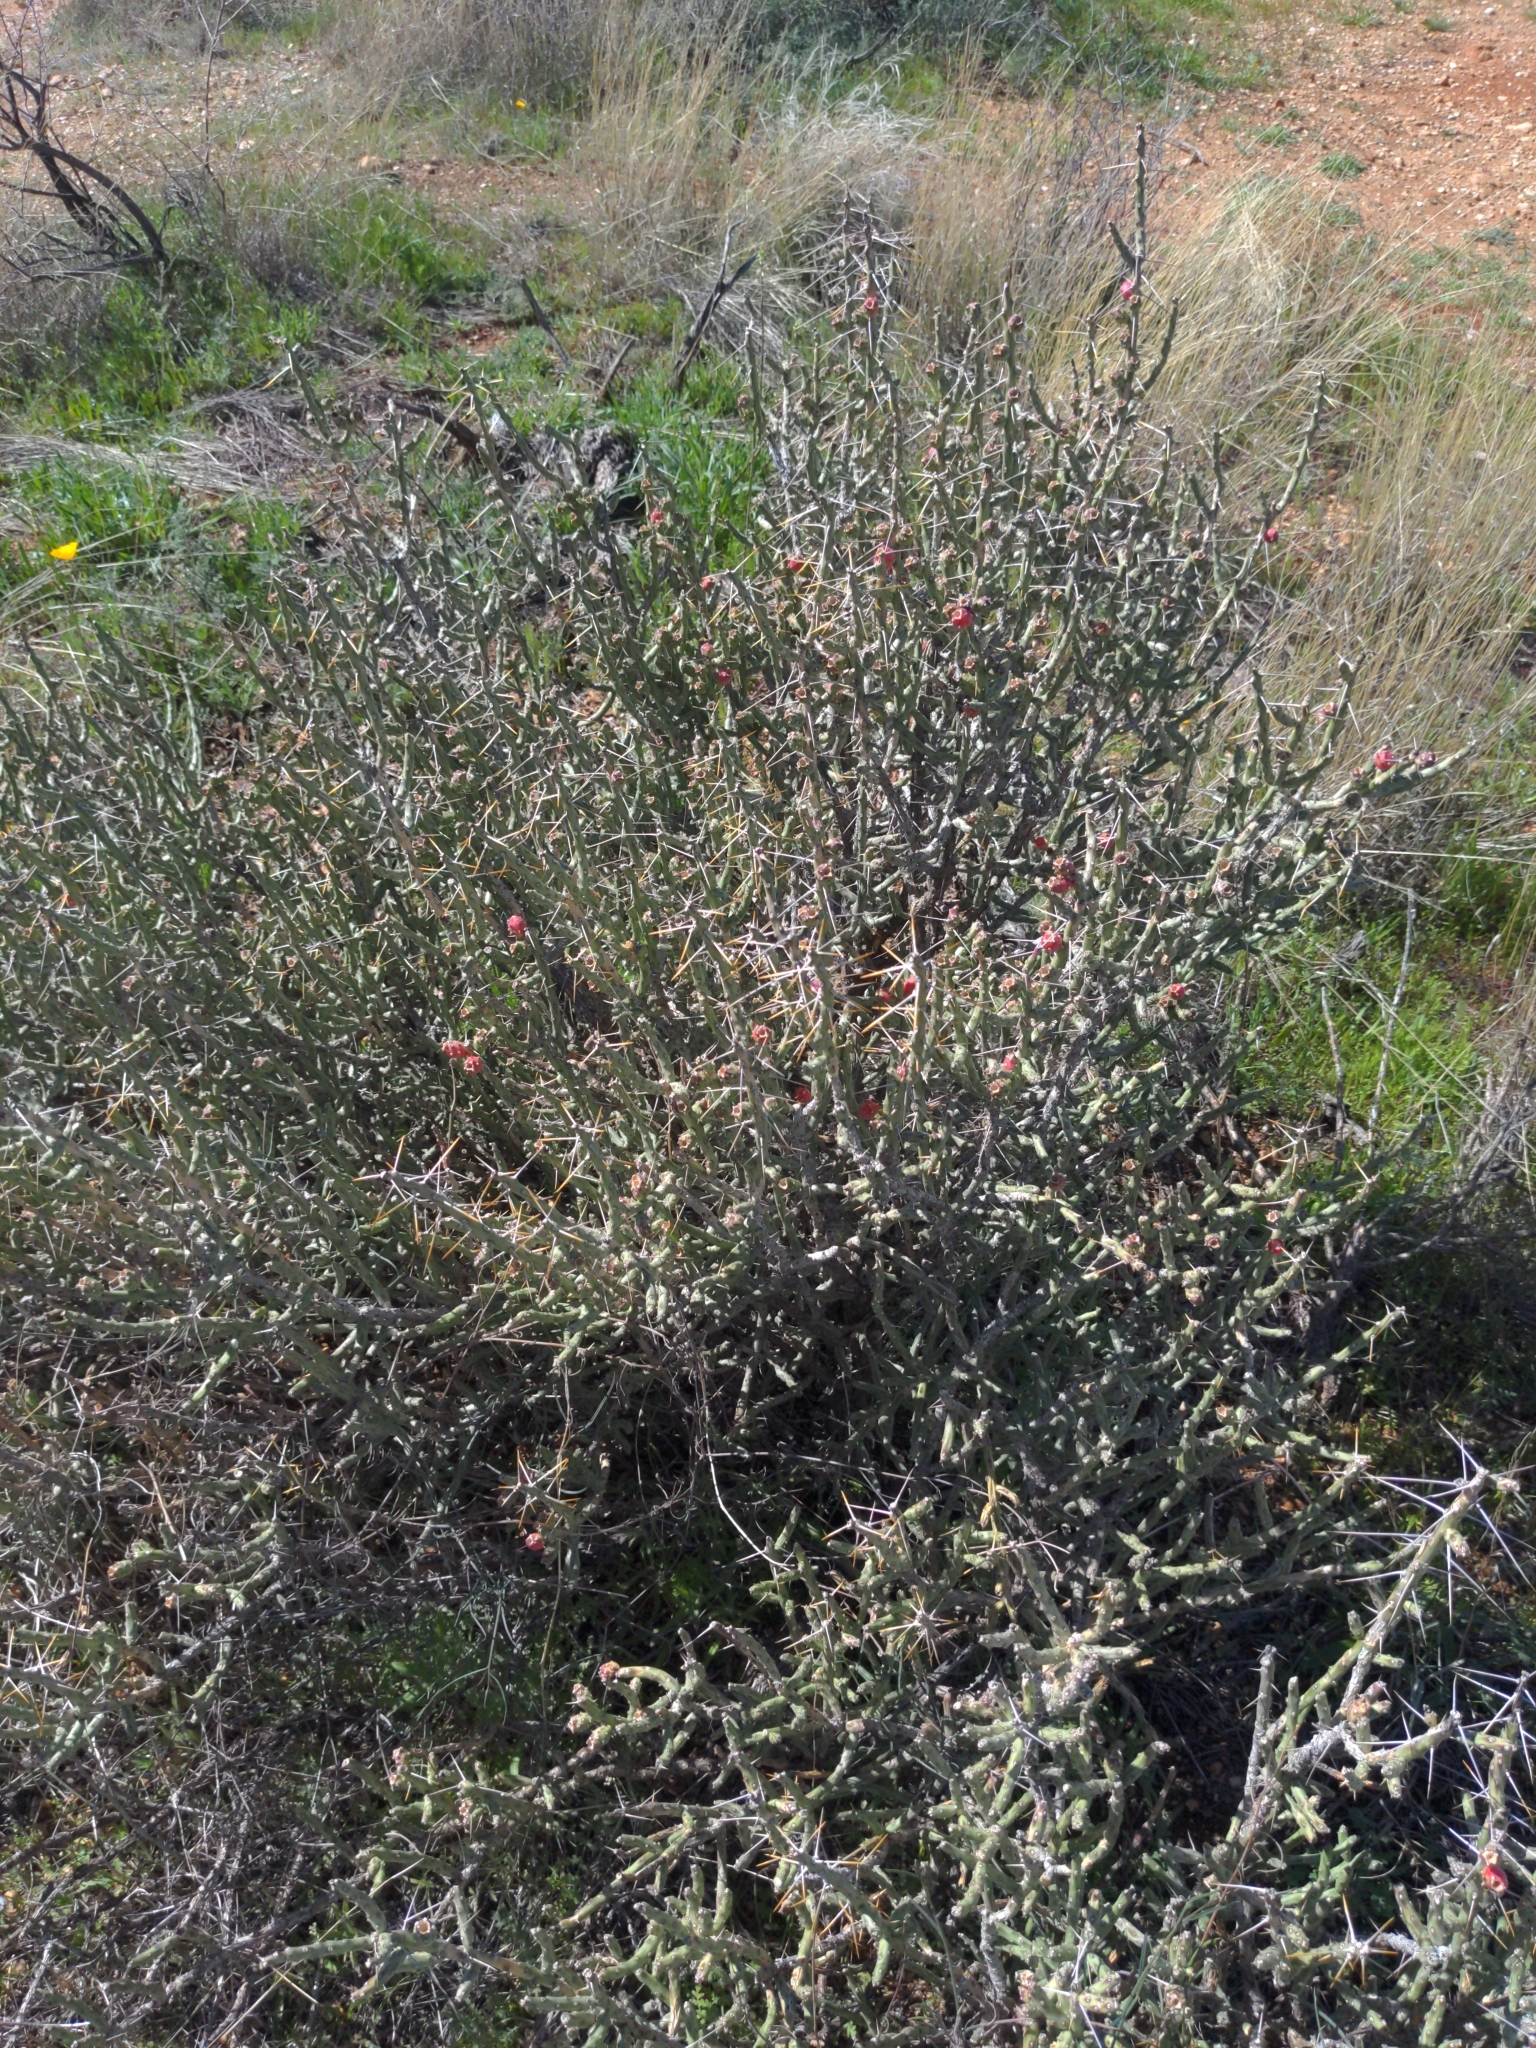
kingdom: Plantae
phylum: Tracheophyta
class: Magnoliopsida
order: Caryophyllales
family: Cactaceae
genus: Cylindropuntia
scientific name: Cylindropuntia leptocaulis
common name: Christmas cactus
